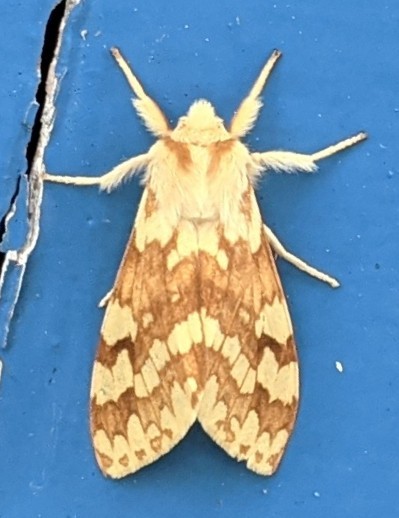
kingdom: Animalia
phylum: Arthropoda
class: Insecta
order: Lepidoptera
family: Erebidae
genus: Lophocampa
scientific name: Lophocampa maculata
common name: Spotted tussock moth
